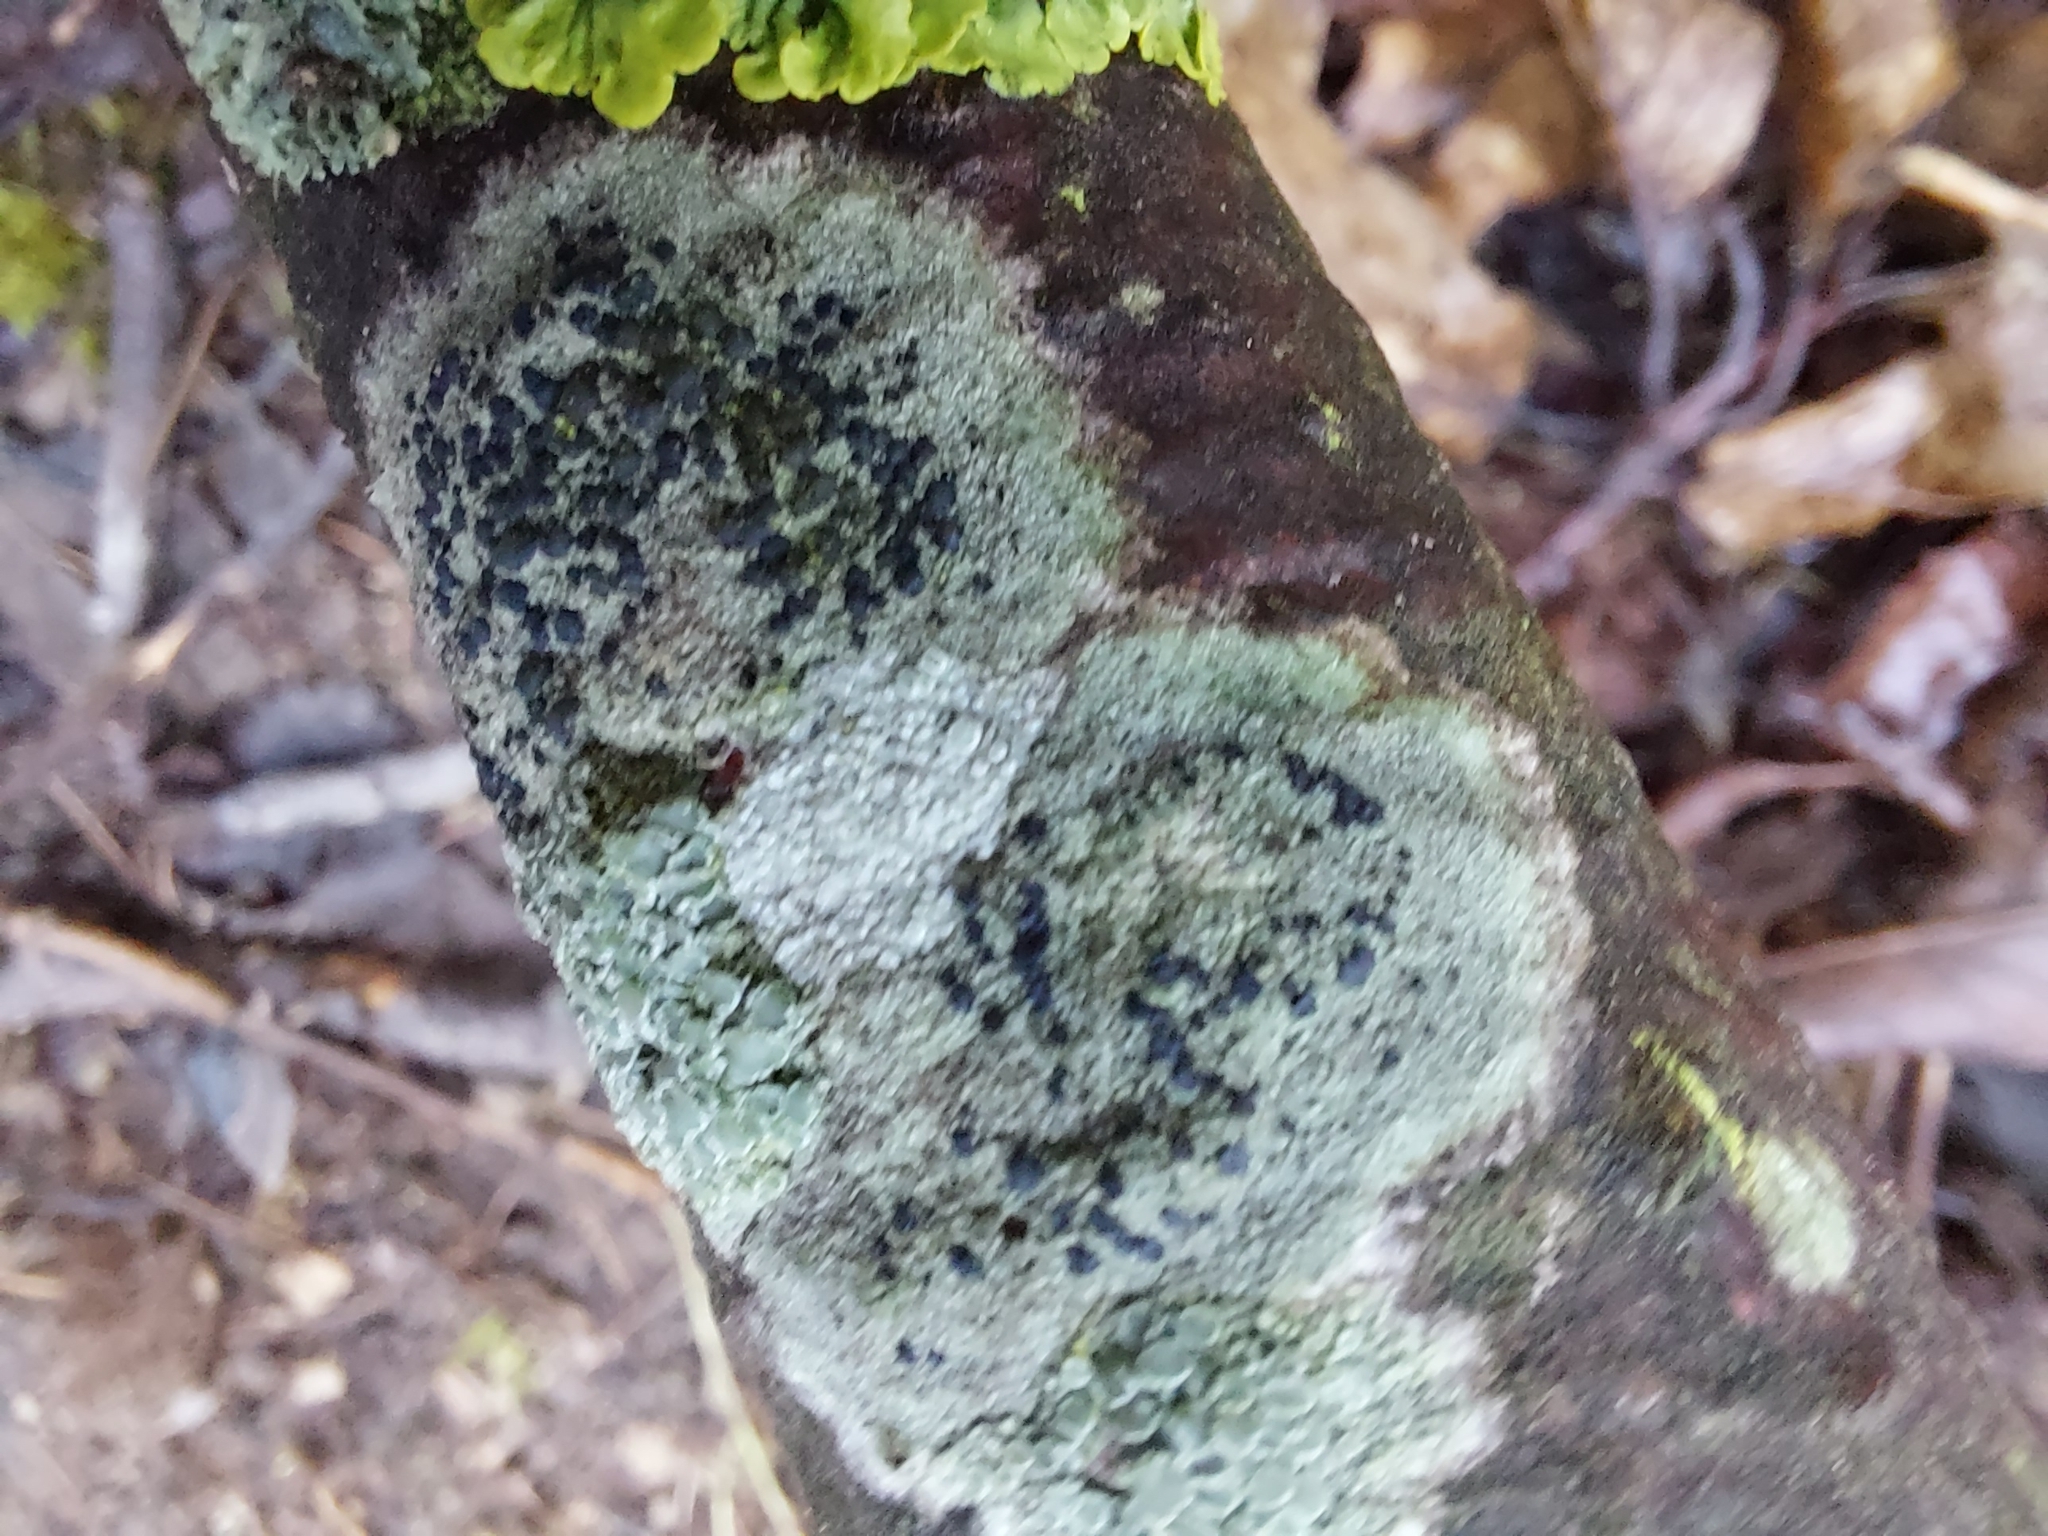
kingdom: Fungi
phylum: Ascomycota
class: Lecanoromycetes
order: Lecanorales
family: Lecanoraceae
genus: Lecidella
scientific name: Lecidella elaeochroma
